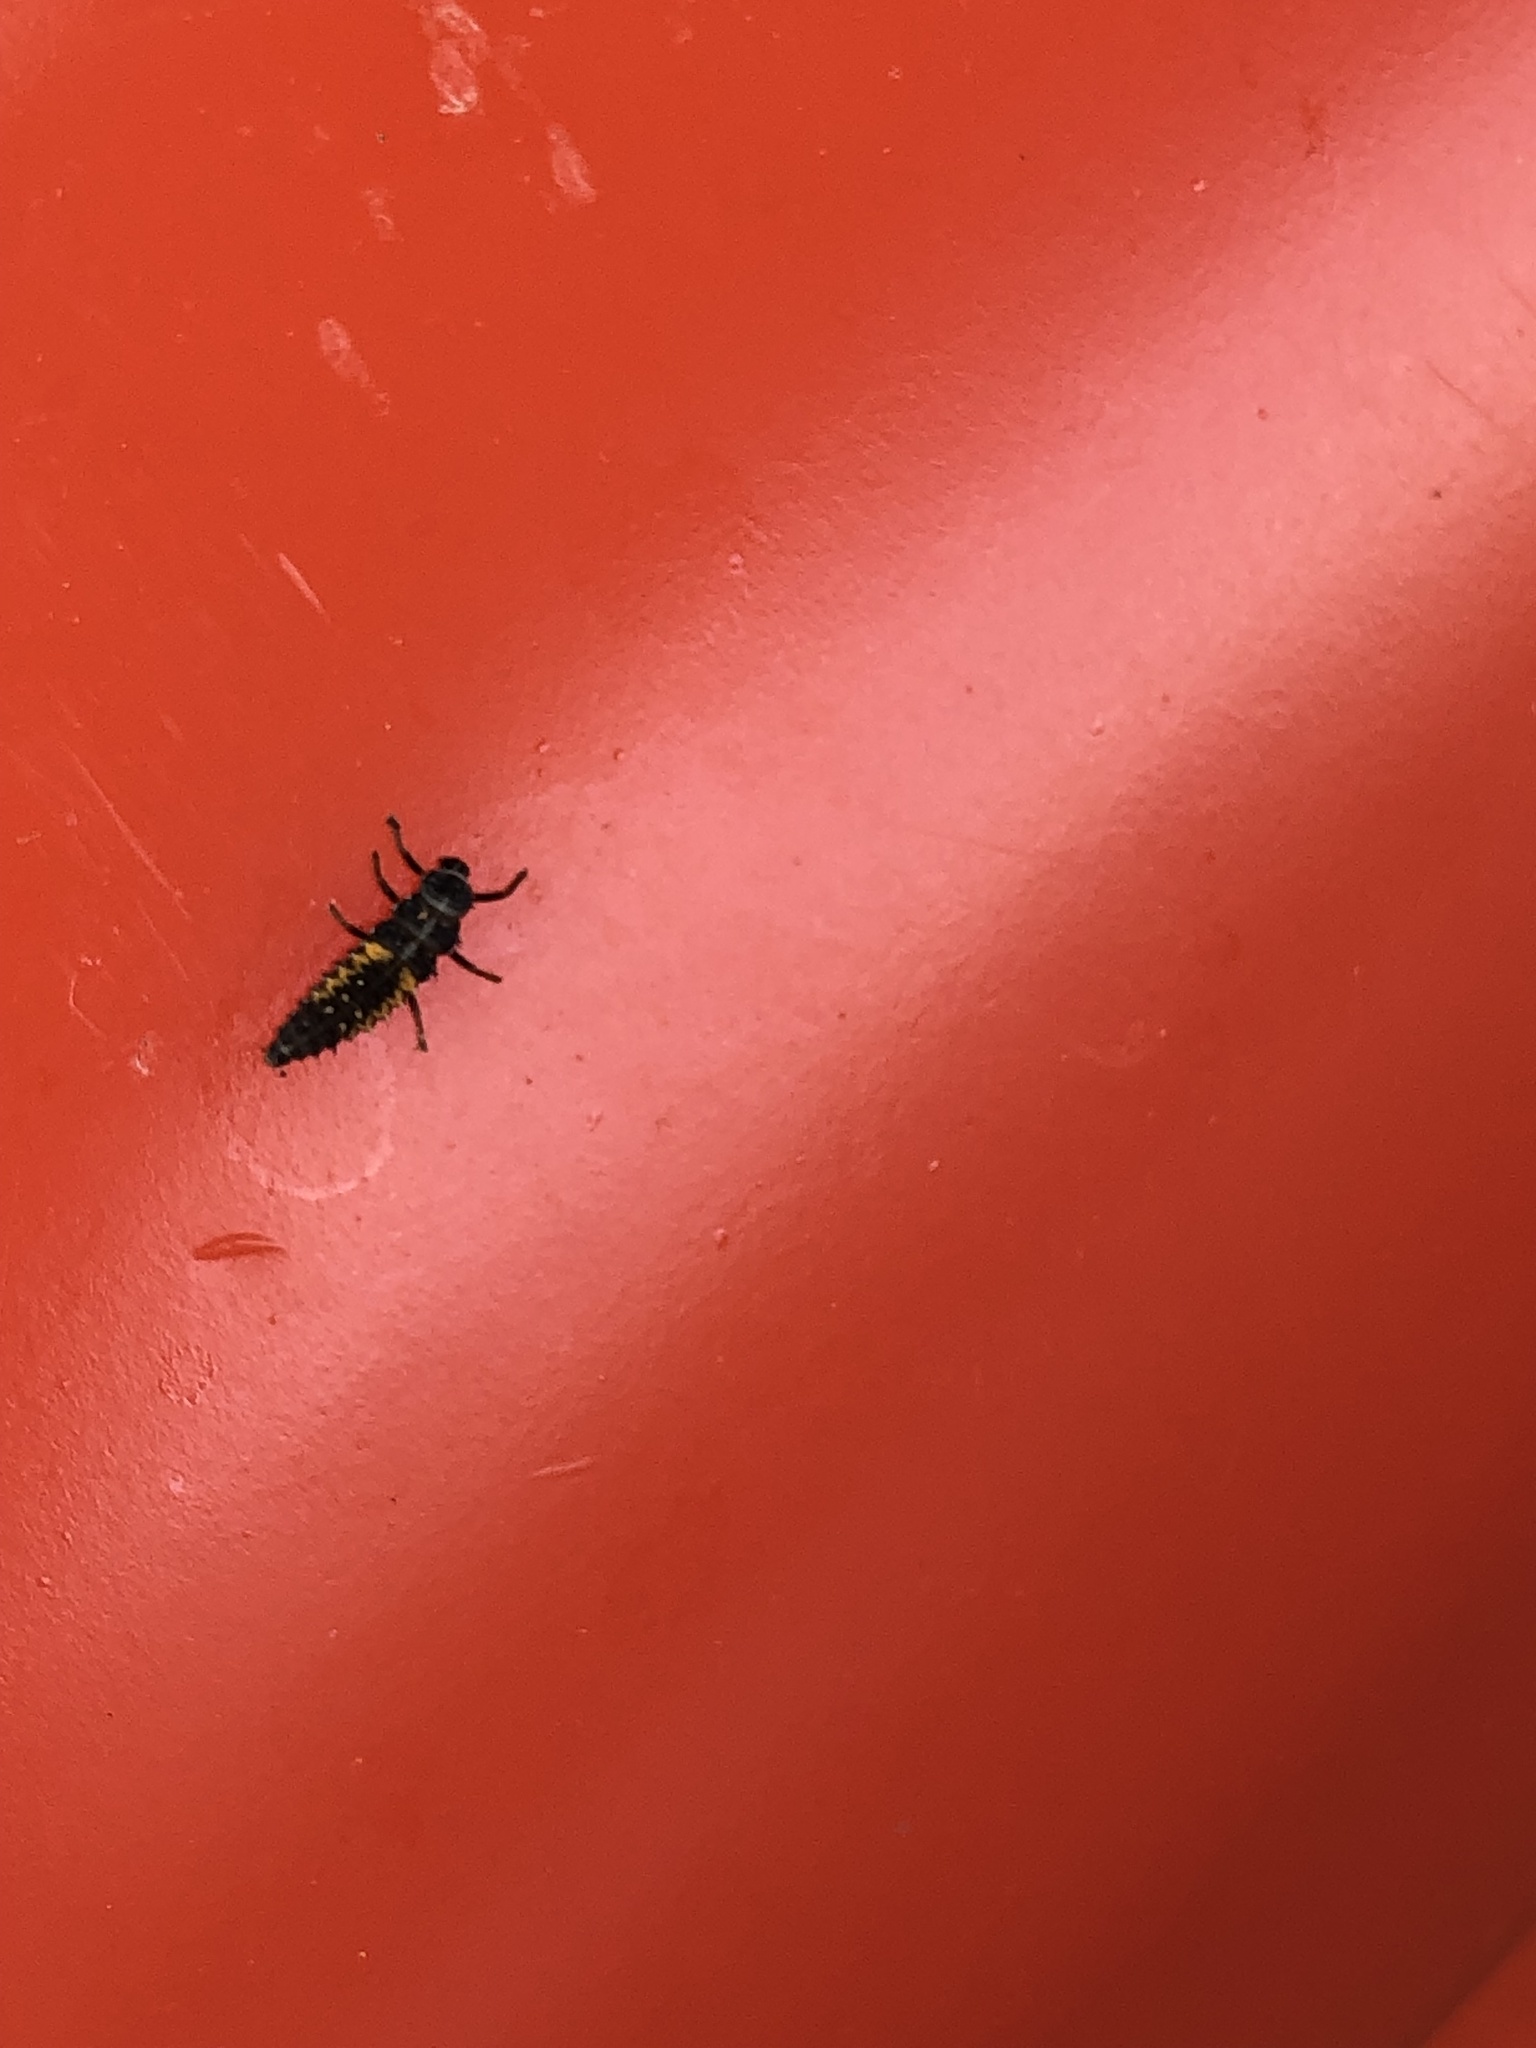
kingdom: Animalia
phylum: Arthropoda
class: Insecta
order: Coleoptera
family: Coccinellidae
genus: Harmonia
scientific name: Harmonia axyridis
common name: Harlequin ladybird
